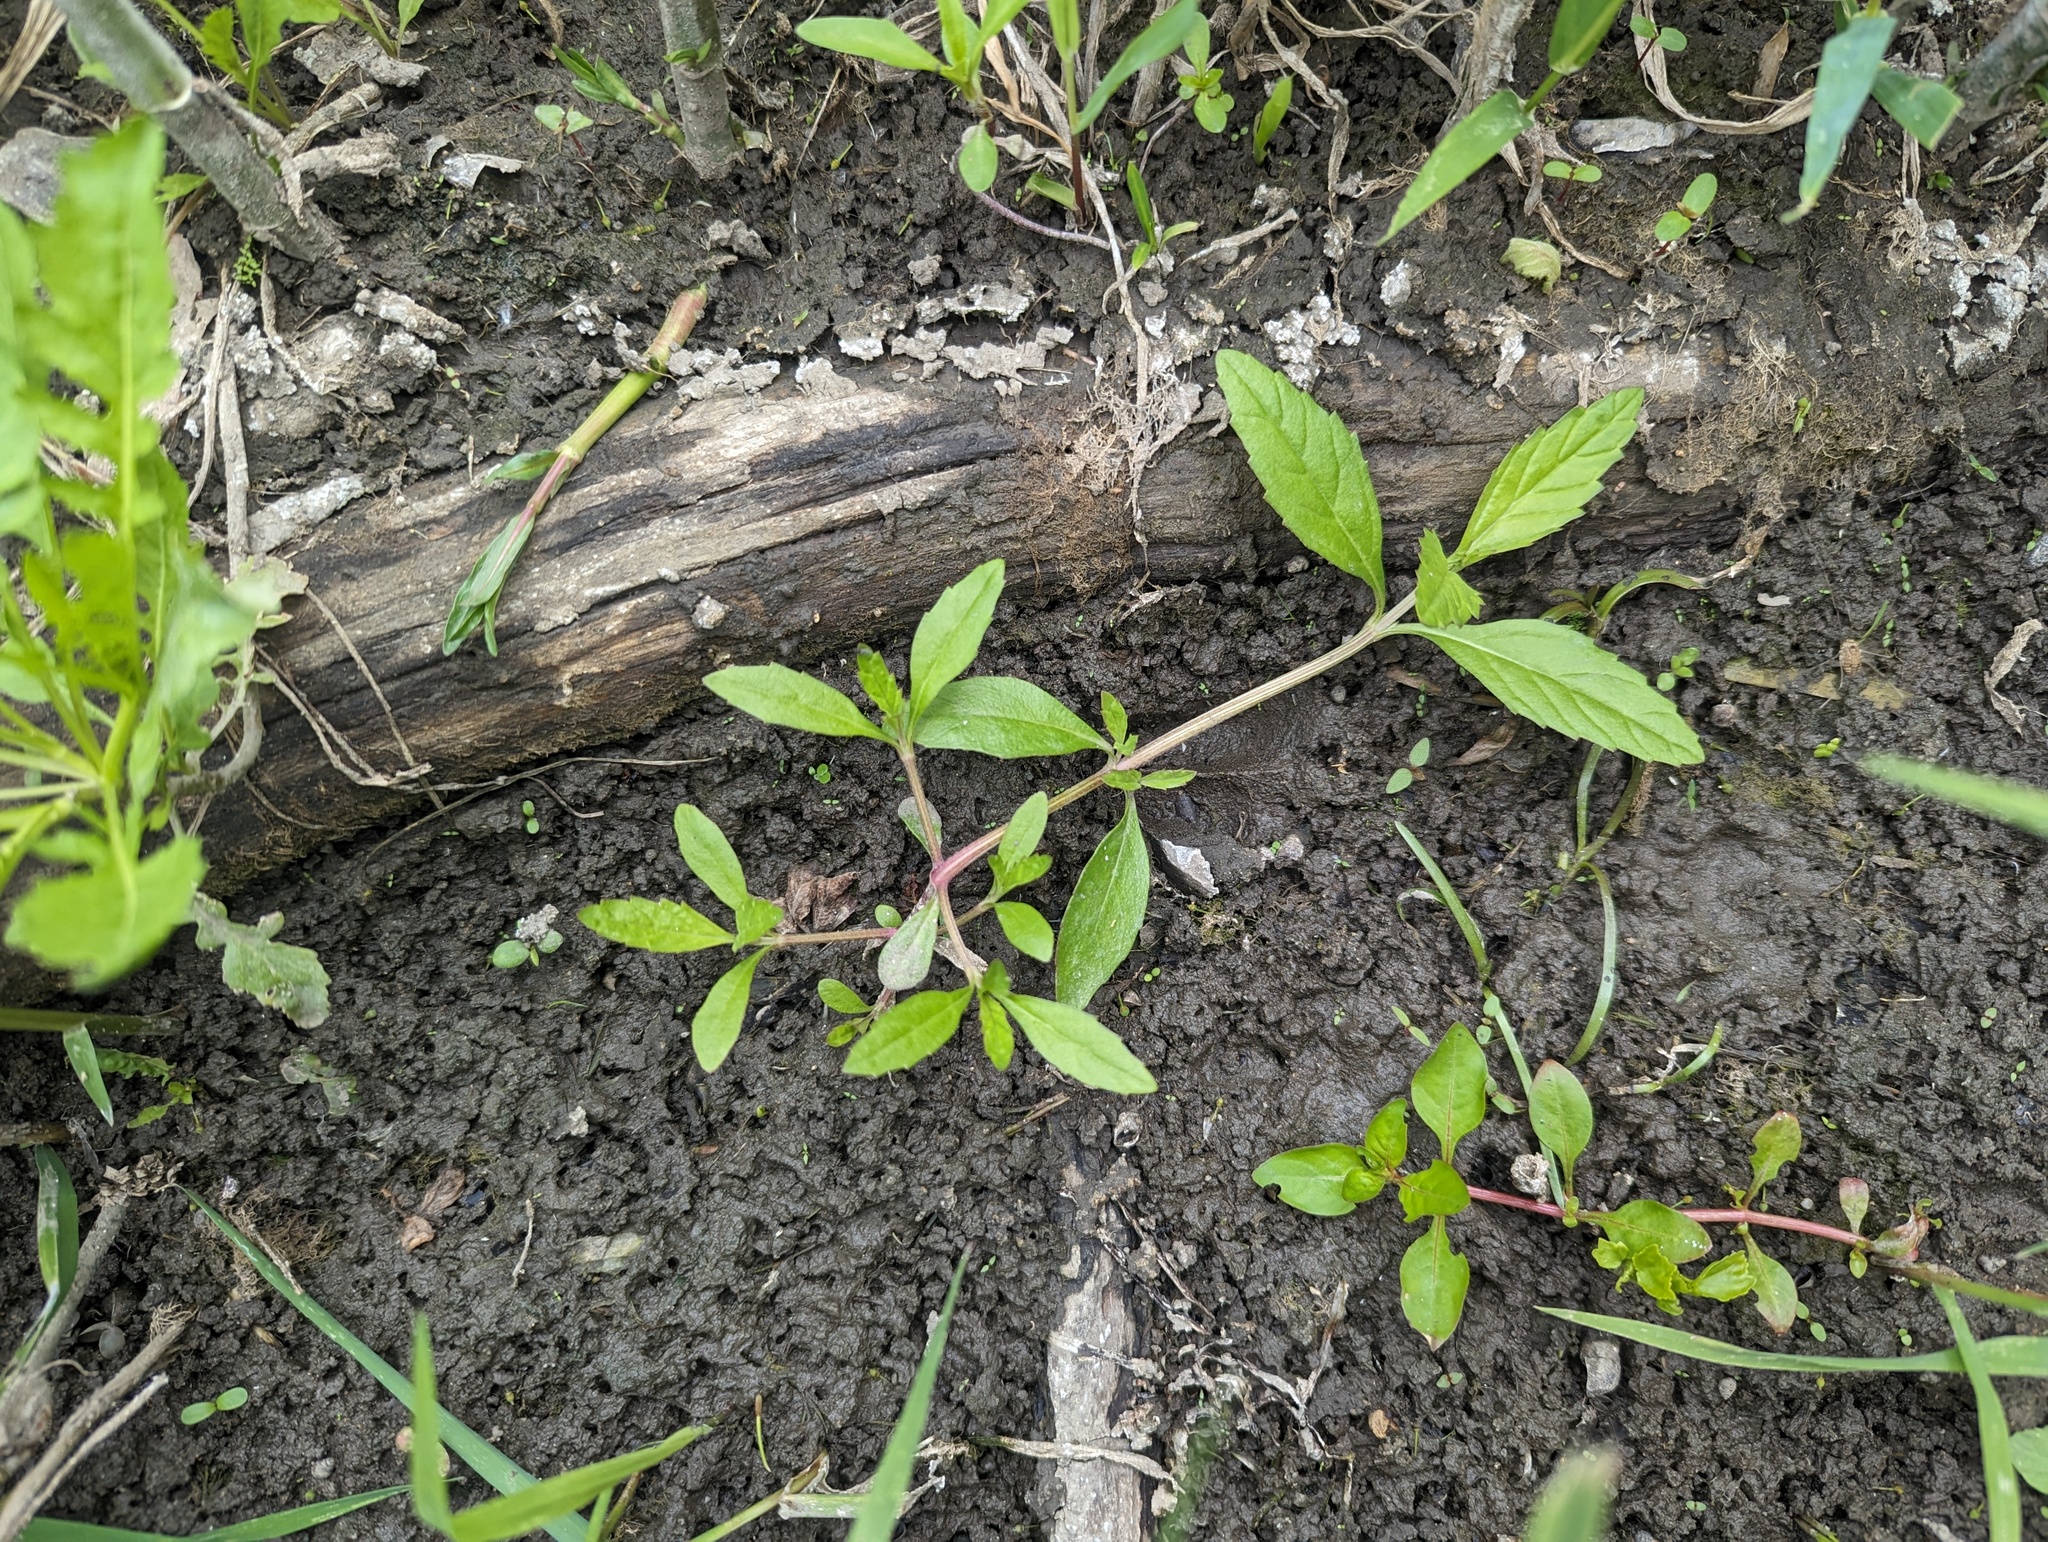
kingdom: Plantae
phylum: Tracheophyta
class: Magnoliopsida
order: Lamiales
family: Verbenaceae
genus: Phyla
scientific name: Phyla lanceolata
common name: Northern fogfruit
